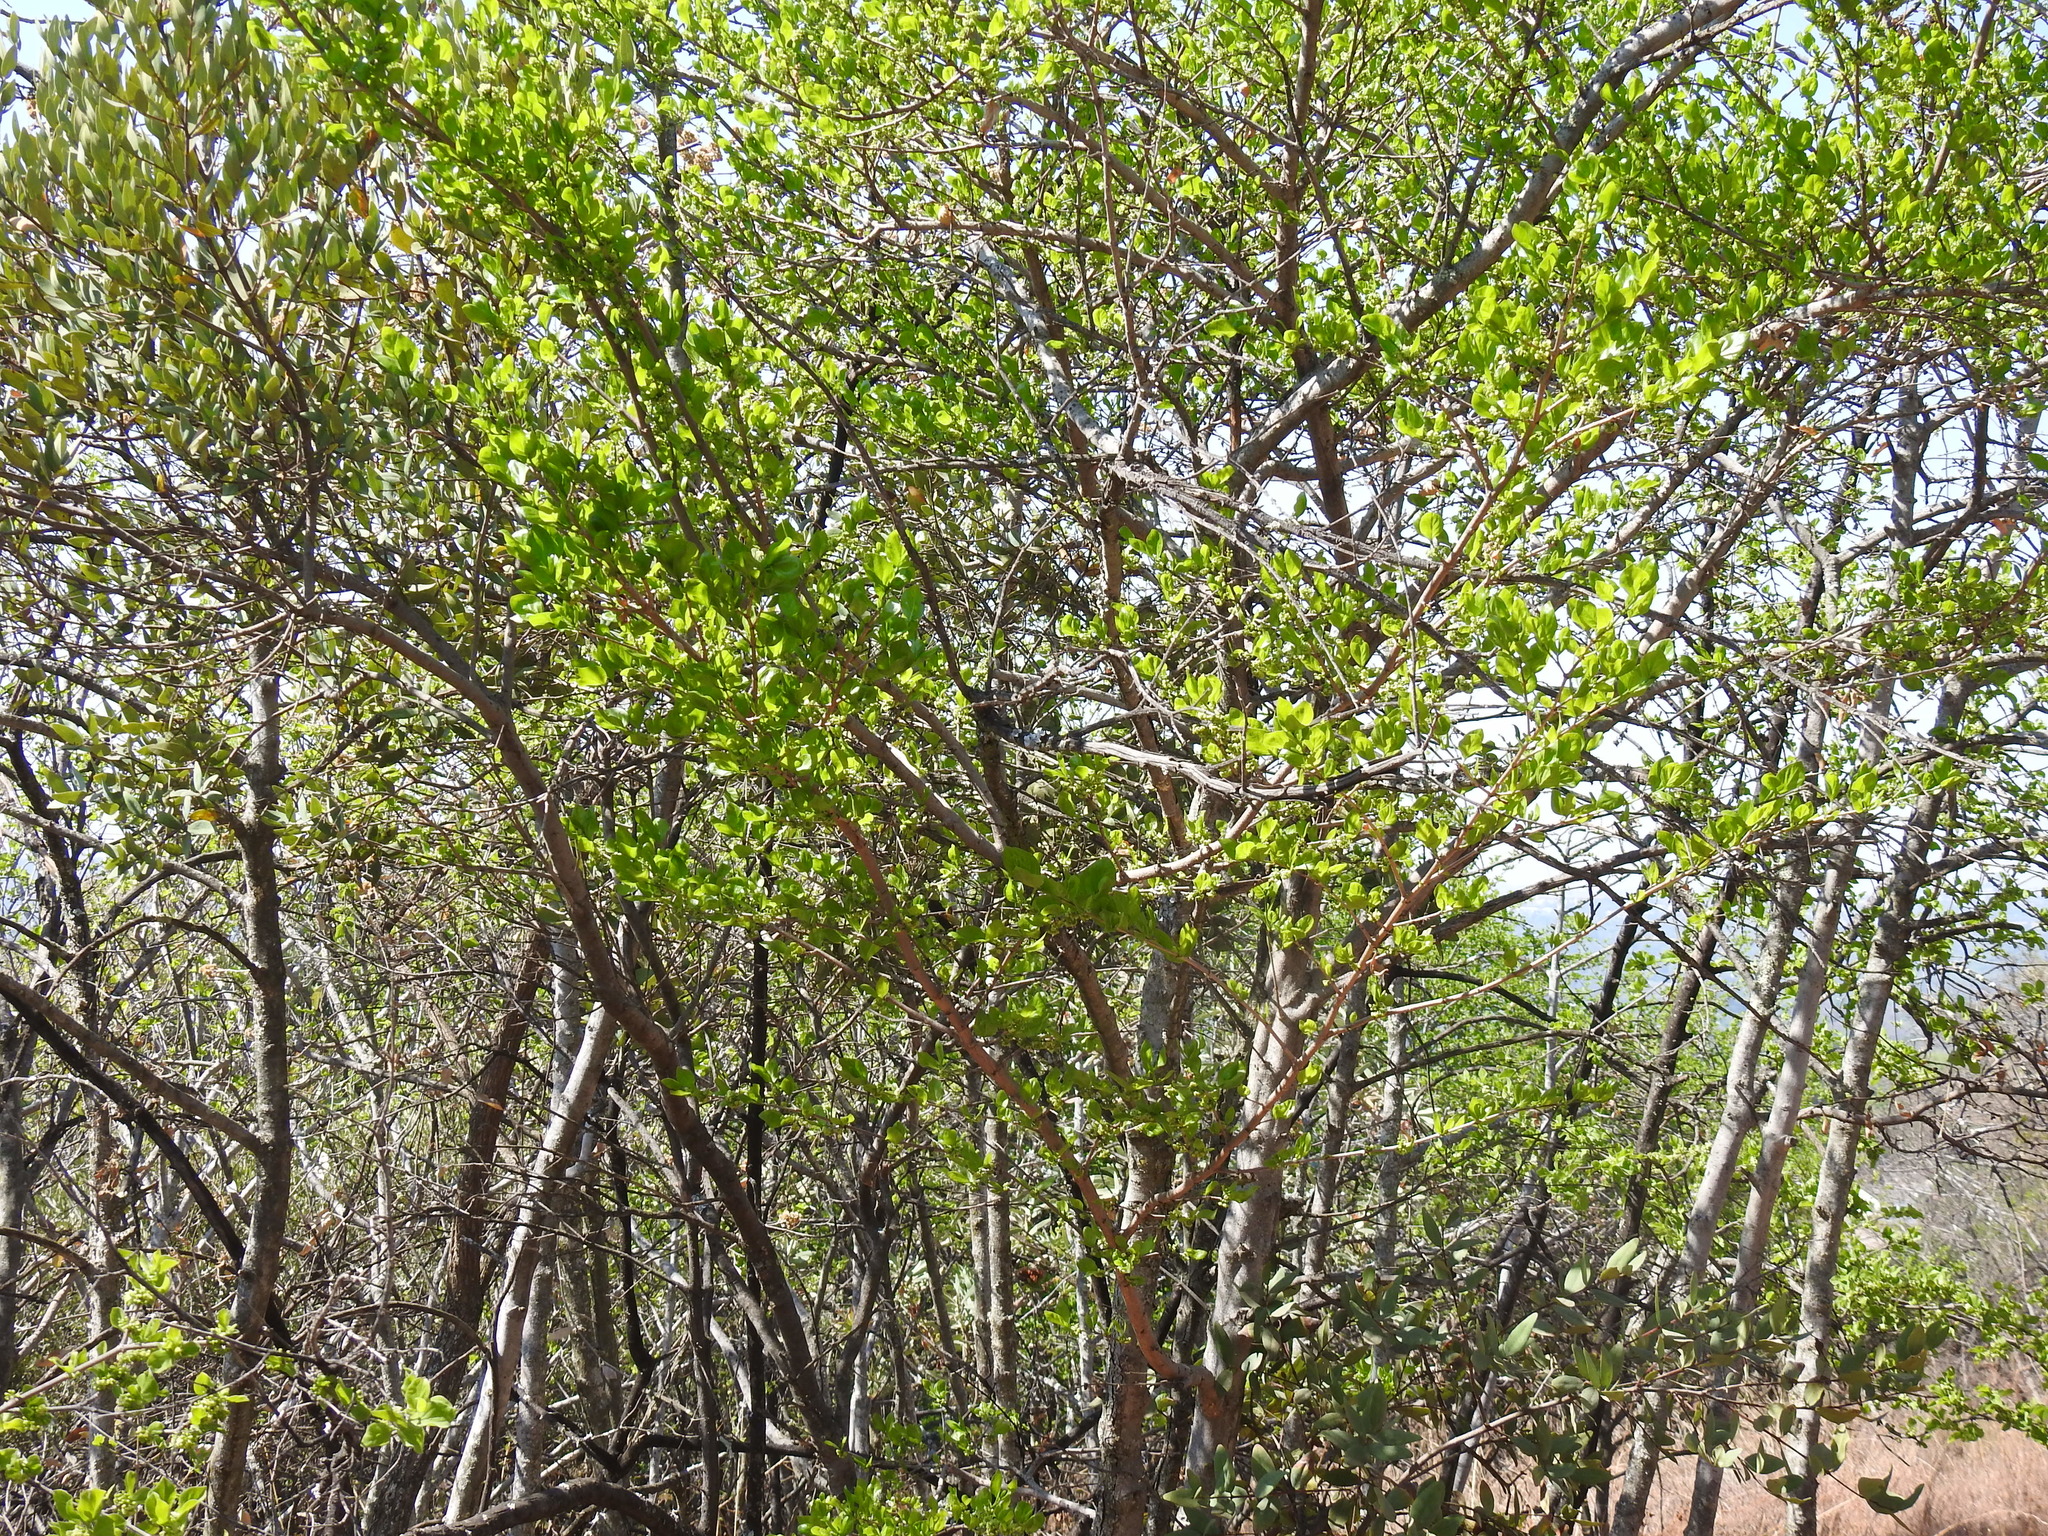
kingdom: Plantae
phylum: Tracheophyta
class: Magnoliopsida
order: Gentianales
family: Rubiaceae
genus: Afrocanthium
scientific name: Afrocanthium gilfillanii
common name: Velvet rock-alder
